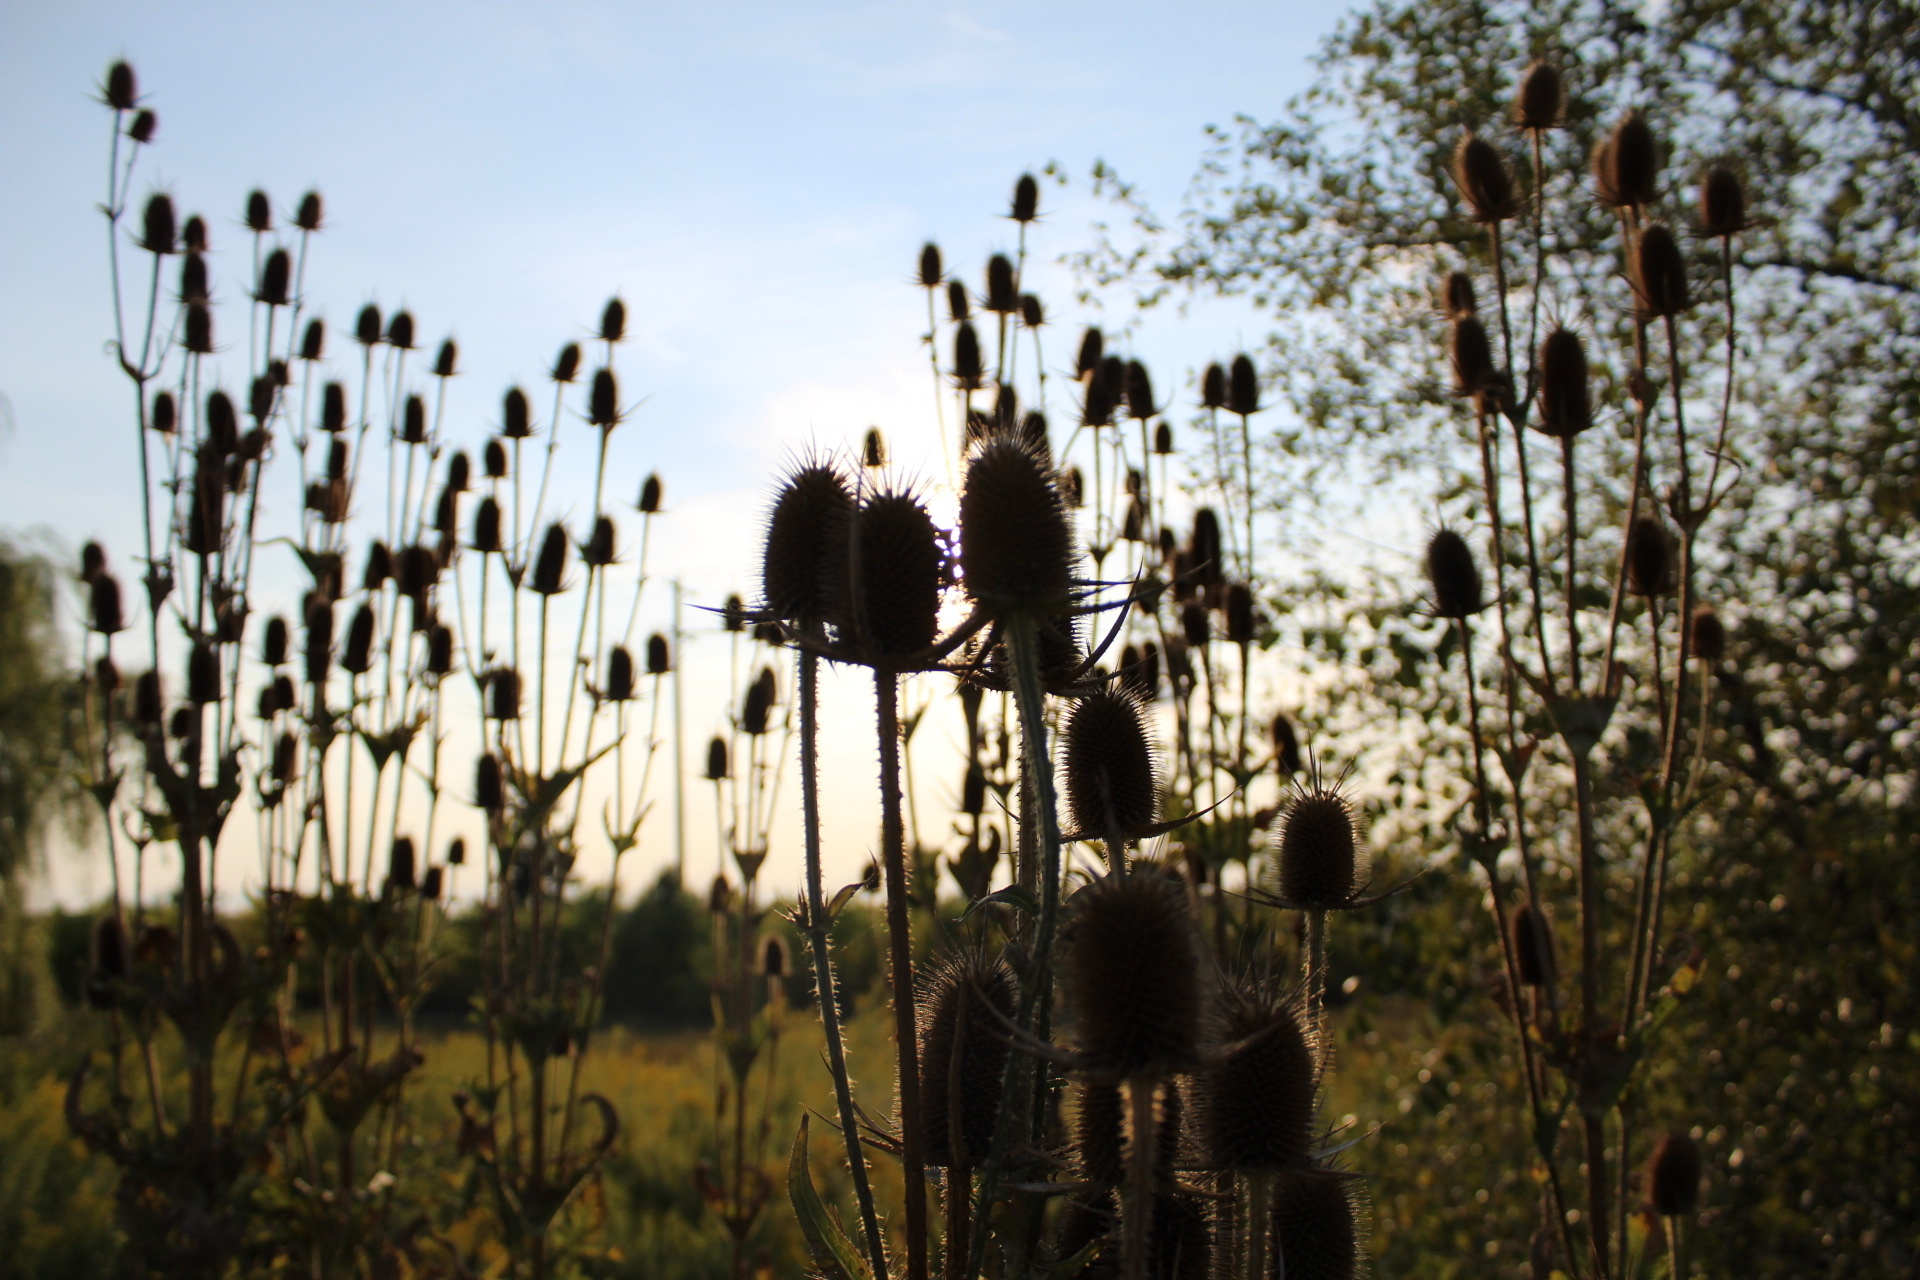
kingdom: Plantae
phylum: Tracheophyta
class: Magnoliopsida
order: Dipsacales
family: Caprifoliaceae
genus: Dipsacus
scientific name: Dipsacus laciniatus
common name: Cut-leaved teasel
